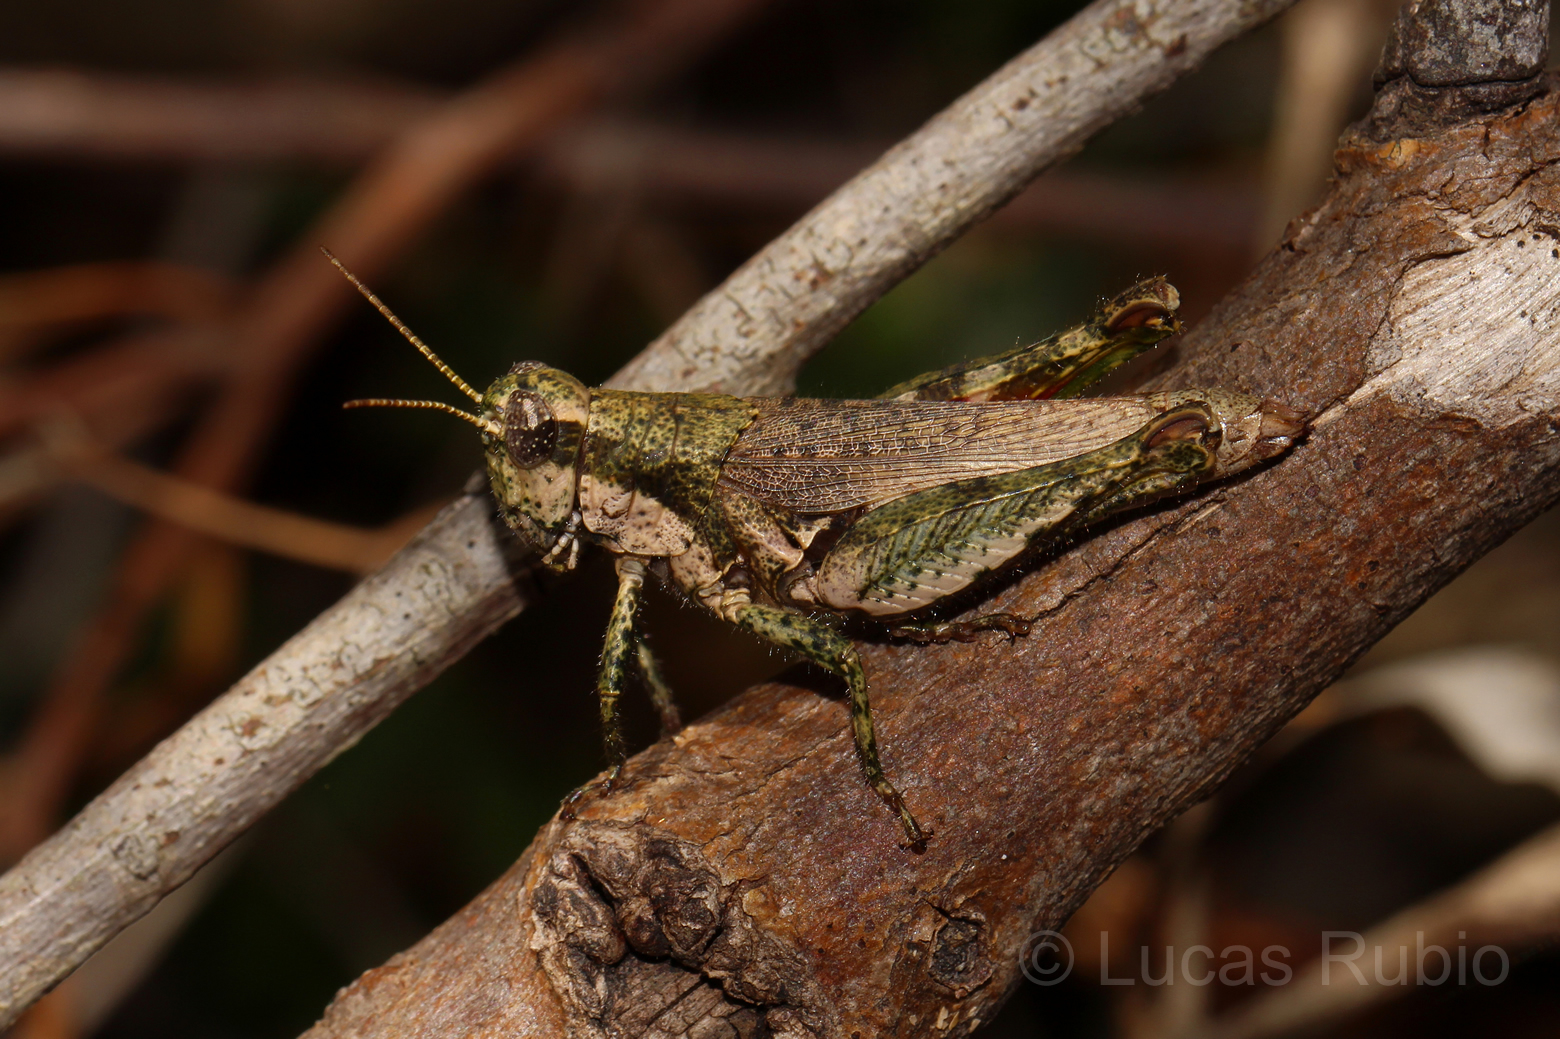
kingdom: Animalia
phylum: Arthropoda
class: Insecta
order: Orthoptera
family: Acrididae
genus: Ronderosia
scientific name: Ronderosia bergii
